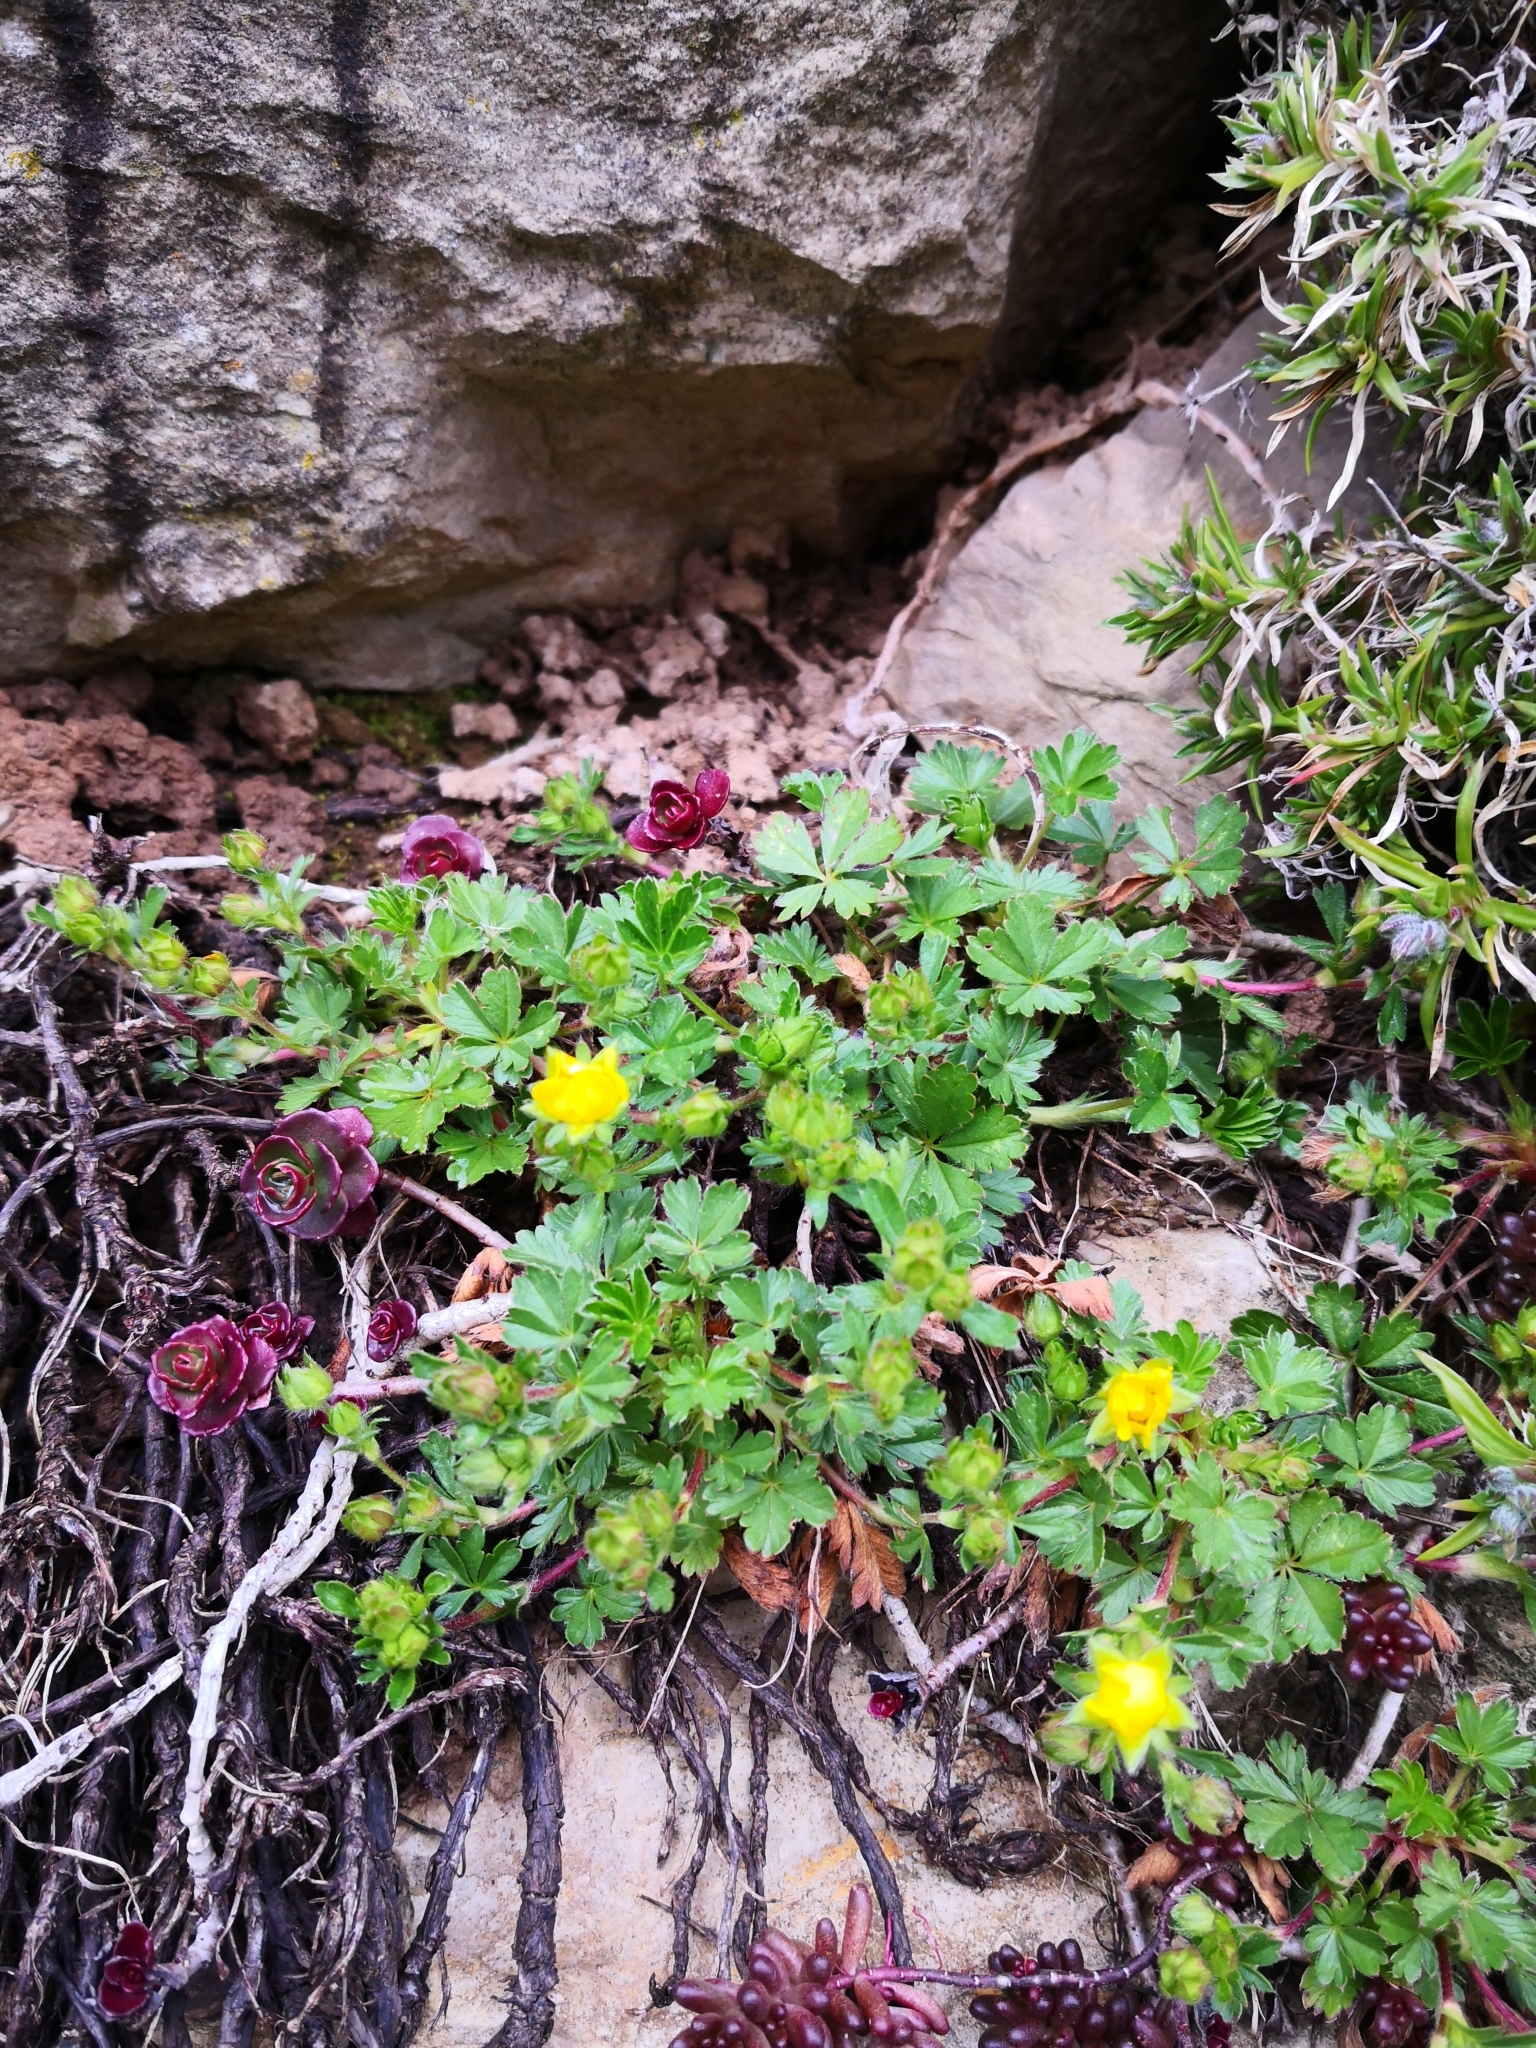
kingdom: Plantae
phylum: Tracheophyta
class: Magnoliopsida
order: Rosales
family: Rosaceae
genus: Potentilla
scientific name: Potentilla verna
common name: Spring cinquefoil
